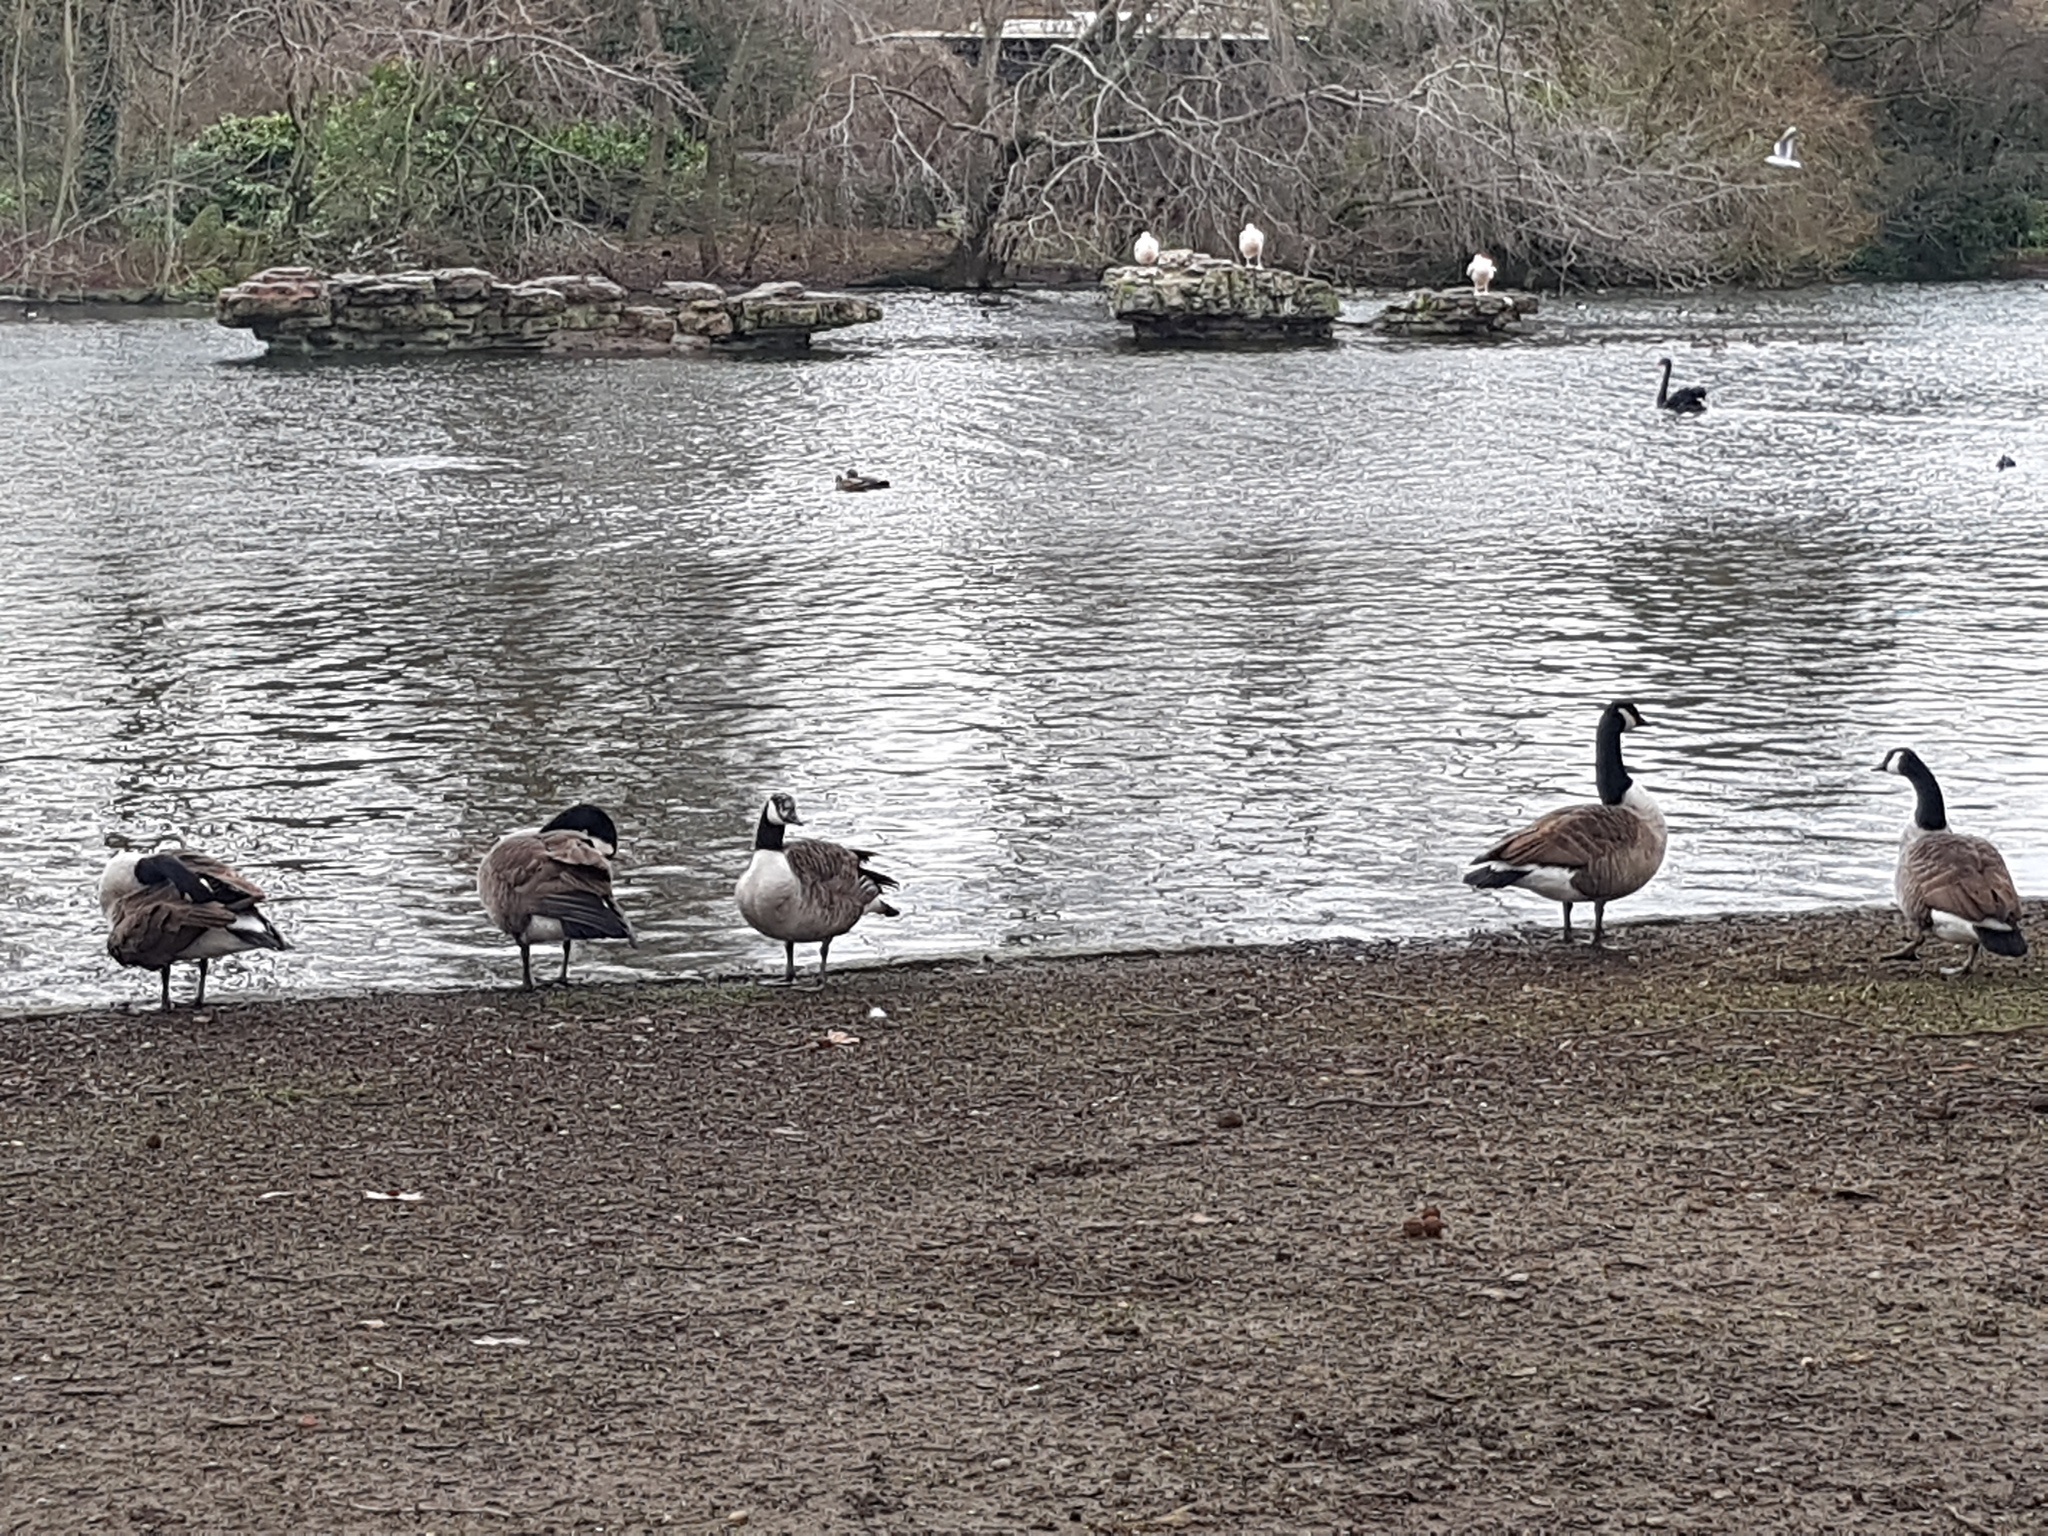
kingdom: Animalia
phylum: Chordata
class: Aves
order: Anseriformes
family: Anatidae
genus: Branta
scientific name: Branta canadensis
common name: Canada goose
